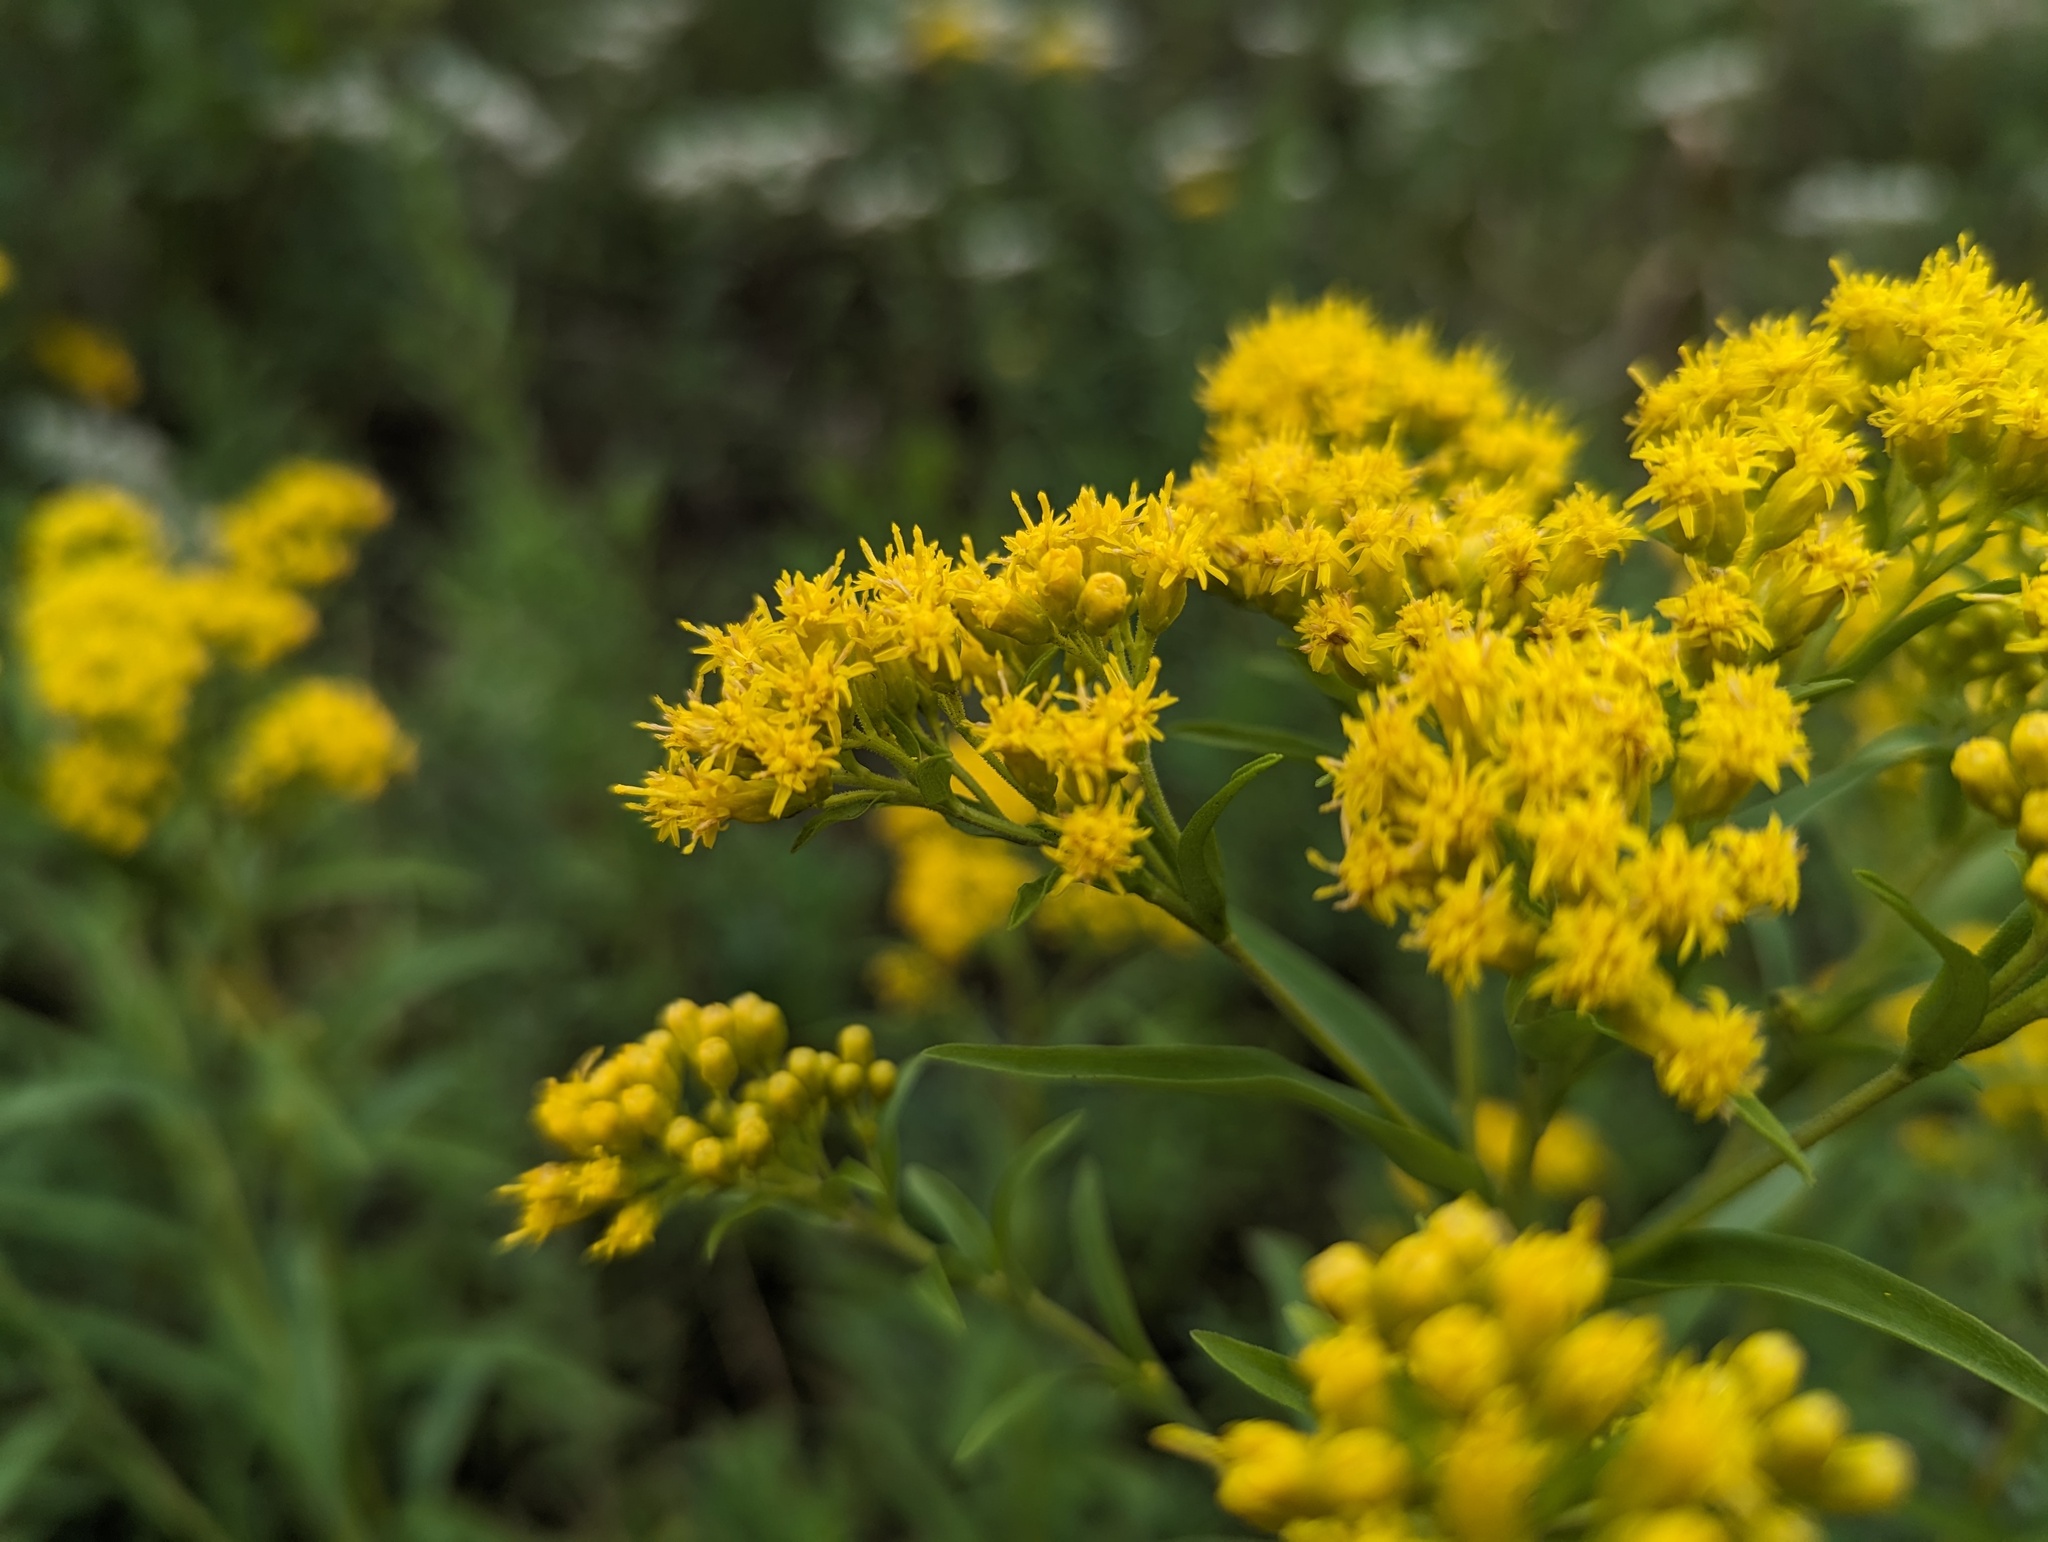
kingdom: Plantae
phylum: Tracheophyta
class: Magnoliopsida
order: Asterales
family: Asteraceae
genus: Solidago
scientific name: Solidago riddellii
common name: Riddell's goldenrod
